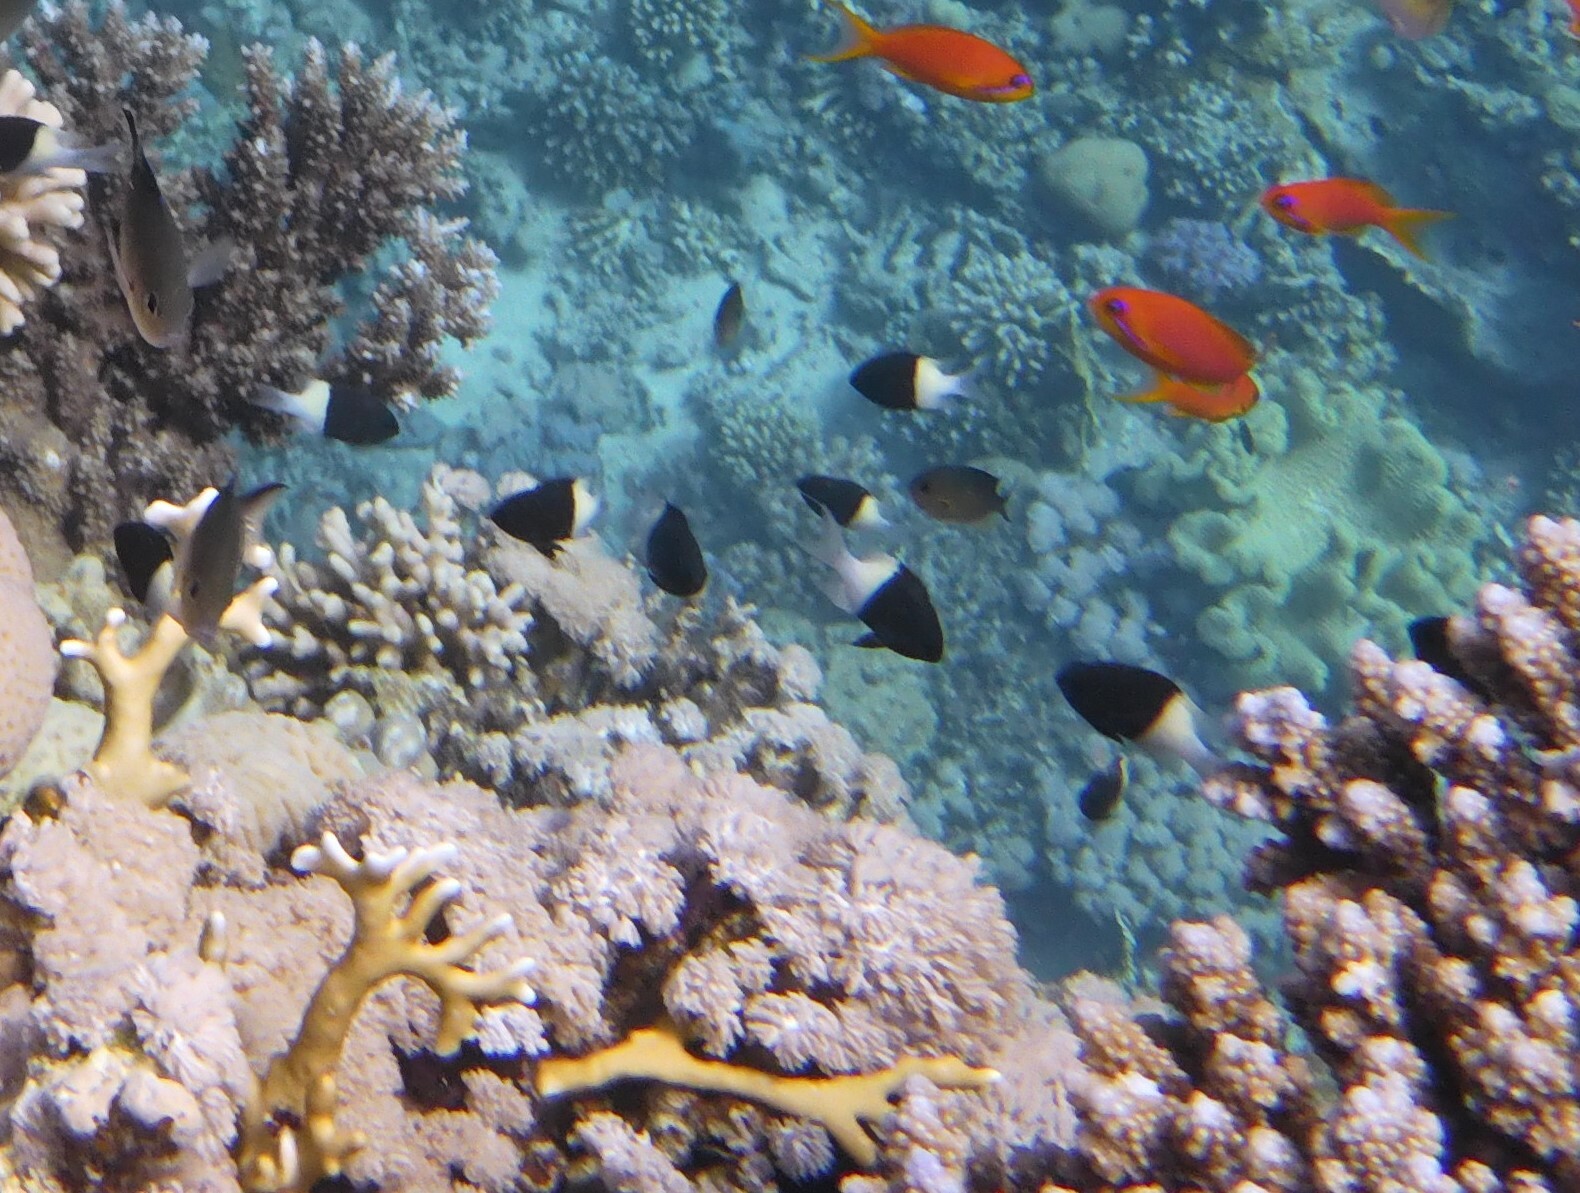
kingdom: Animalia
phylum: Chordata
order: Perciformes
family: Pomacentridae
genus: Chromis
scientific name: Chromis dimidiata
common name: Half-and-half chromis
